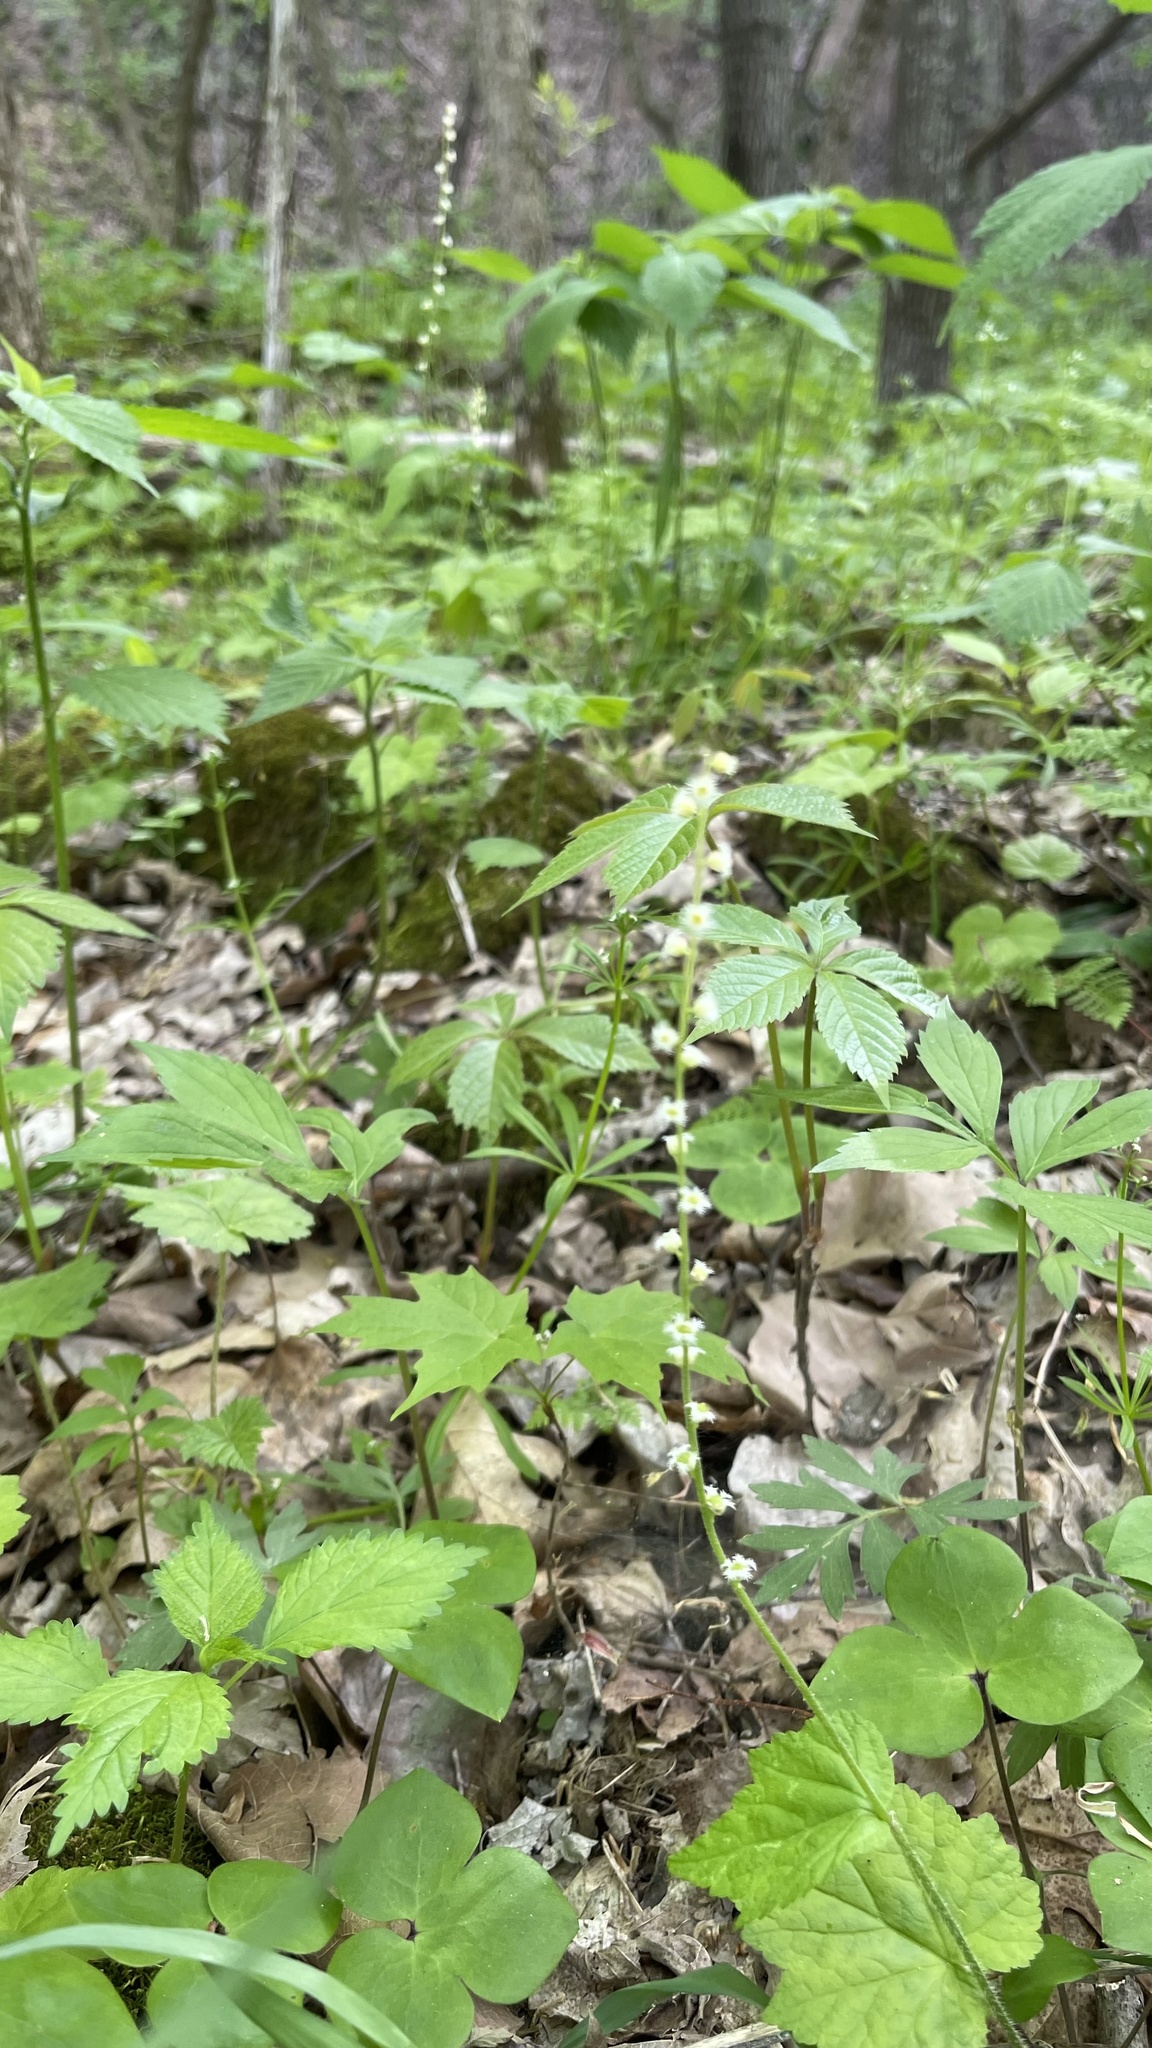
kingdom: Plantae
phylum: Tracheophyta
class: Magnoliopsida
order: Saxifragales
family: Saxifragaceae
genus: Mitella
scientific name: Mitella diphylla
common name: Coolwort
